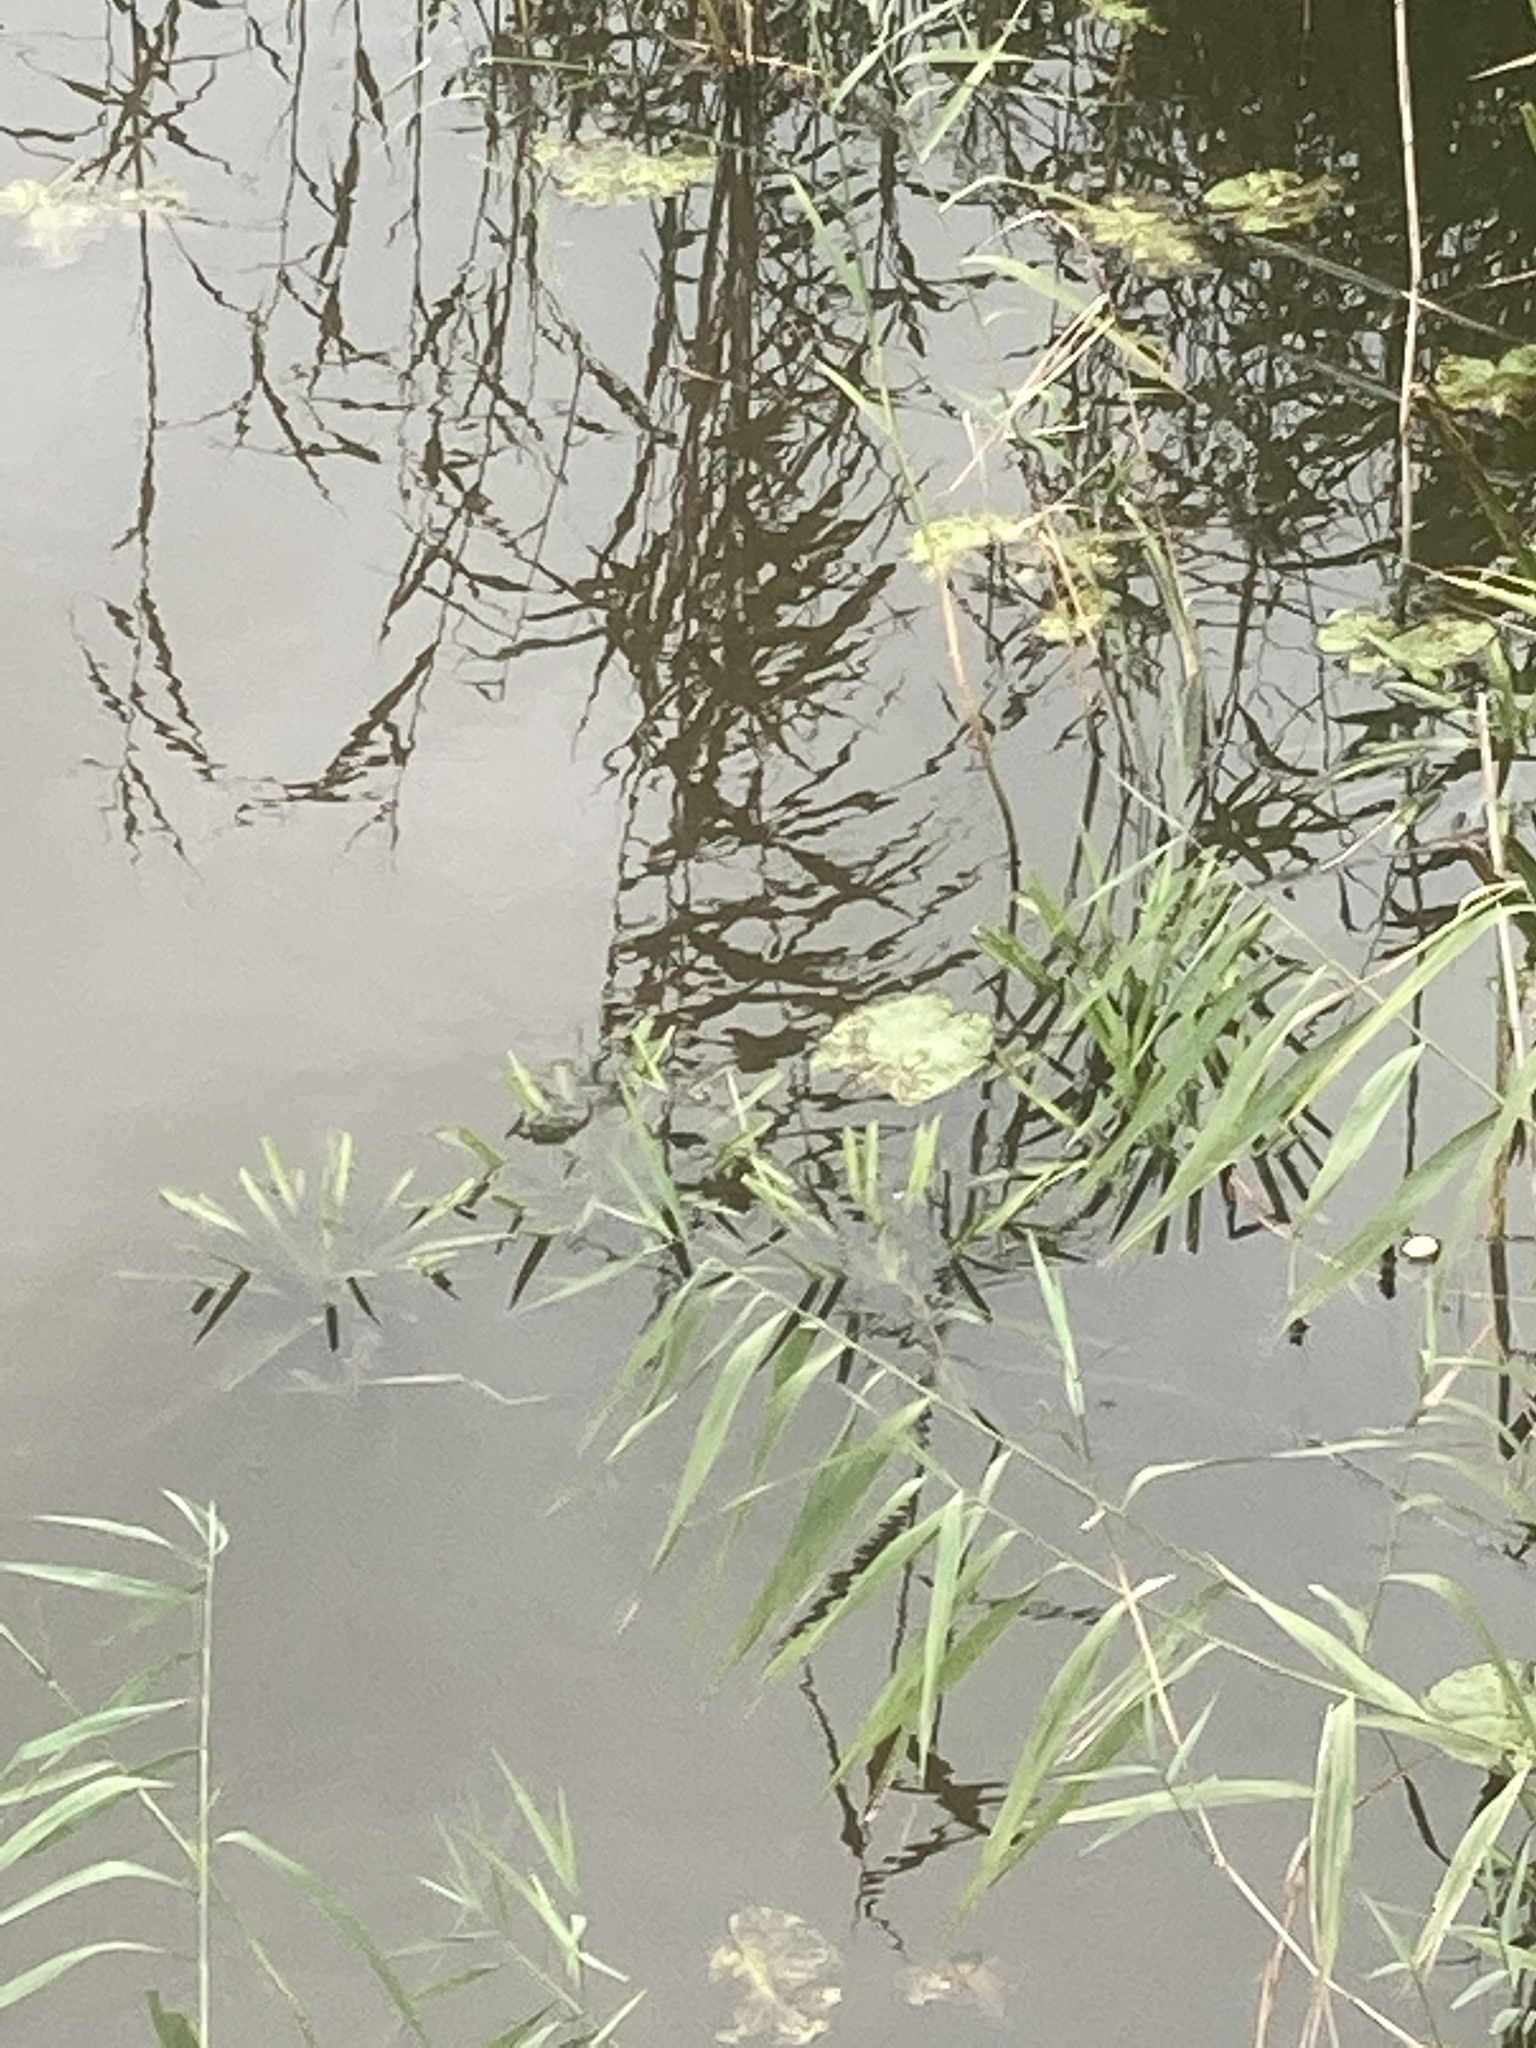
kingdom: Plantae
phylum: Tracheophyta
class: Liliopsida
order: Alismatales
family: Hydrocharitaceae
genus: Stratiotes
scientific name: Stratiotes aloides
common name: Water-soldier
